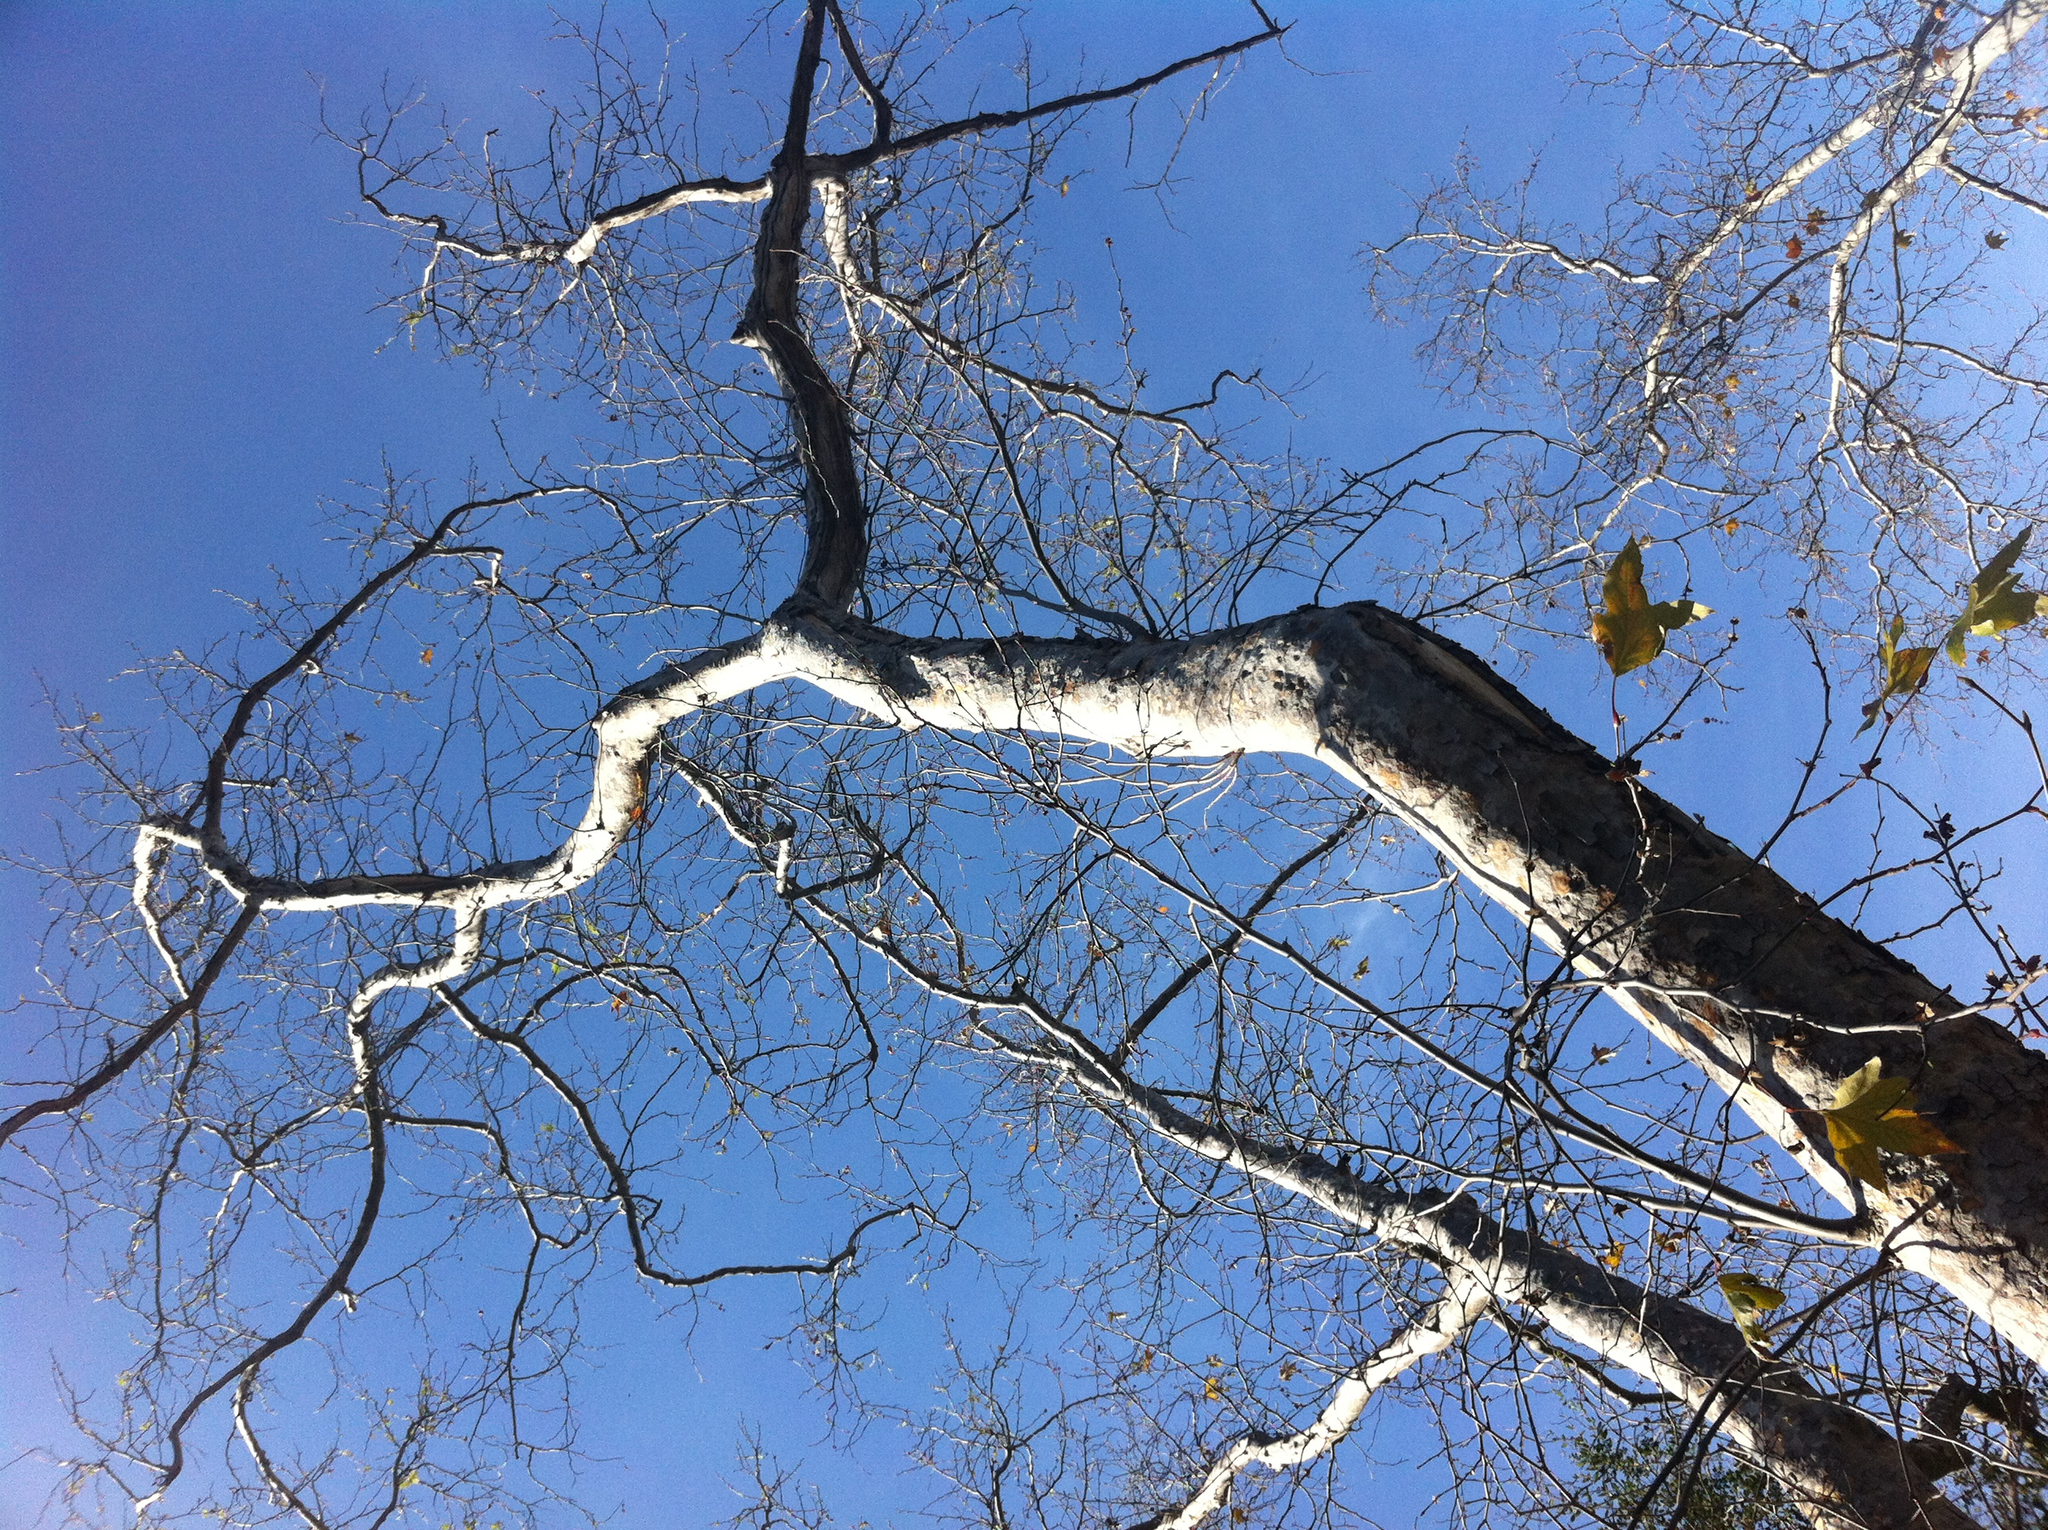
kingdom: Plantae
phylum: Tracheophyta
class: Magnoliopsida
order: Proteales
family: Platanaceae
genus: Platanus
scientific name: Platanus racemosa
